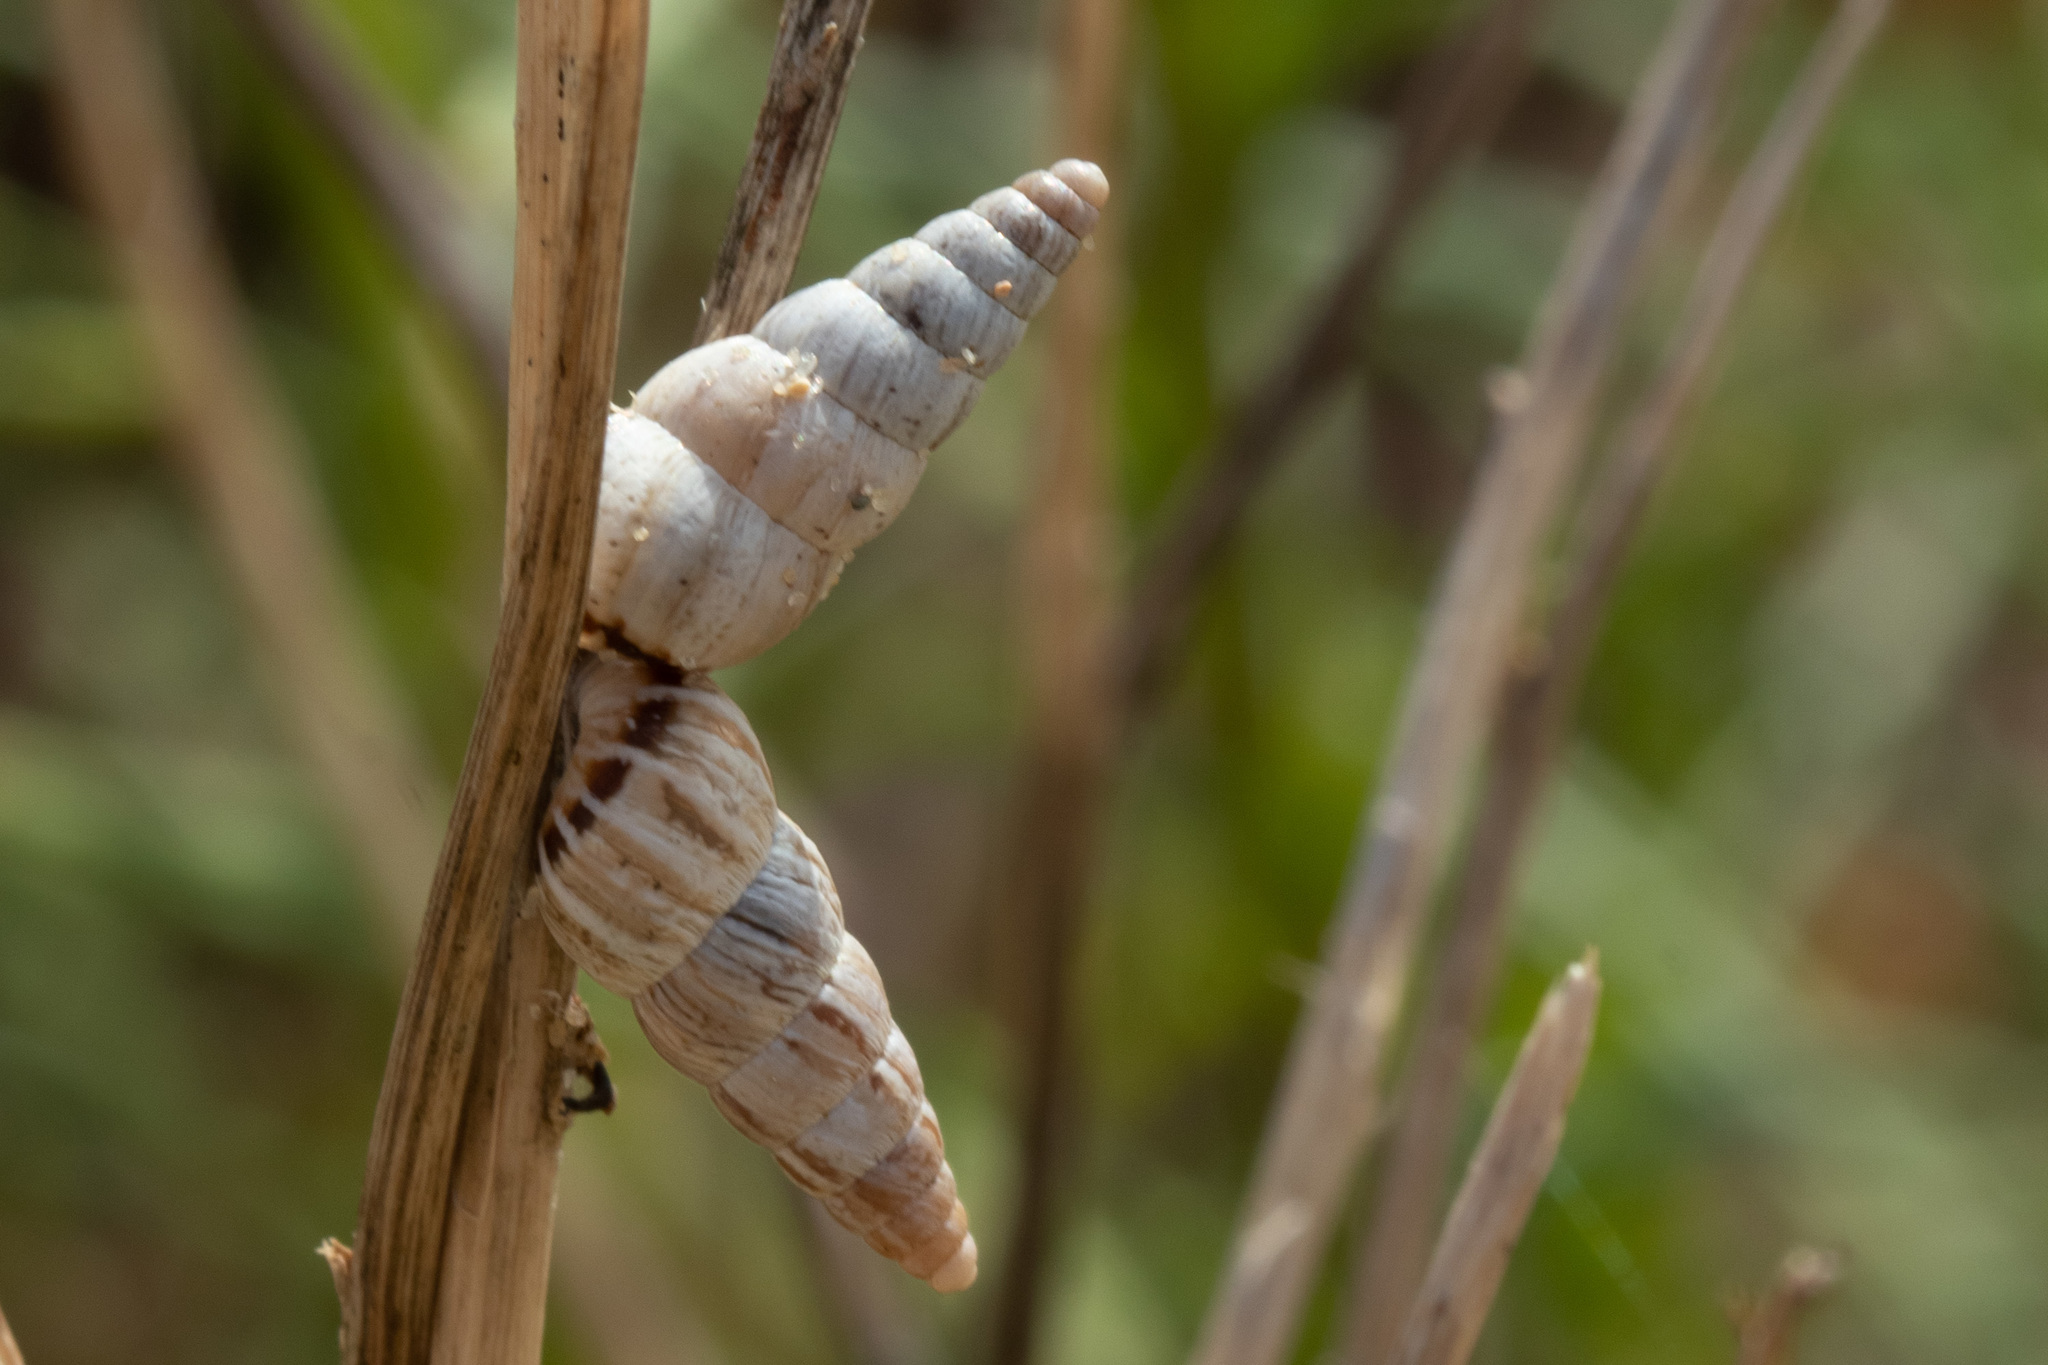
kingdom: Animalia
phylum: Mollusca
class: Gastropoda
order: Stylommatophora
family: Geomitridae
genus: Cochlicella
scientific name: Cochlicella acuta
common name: Pointed snail
